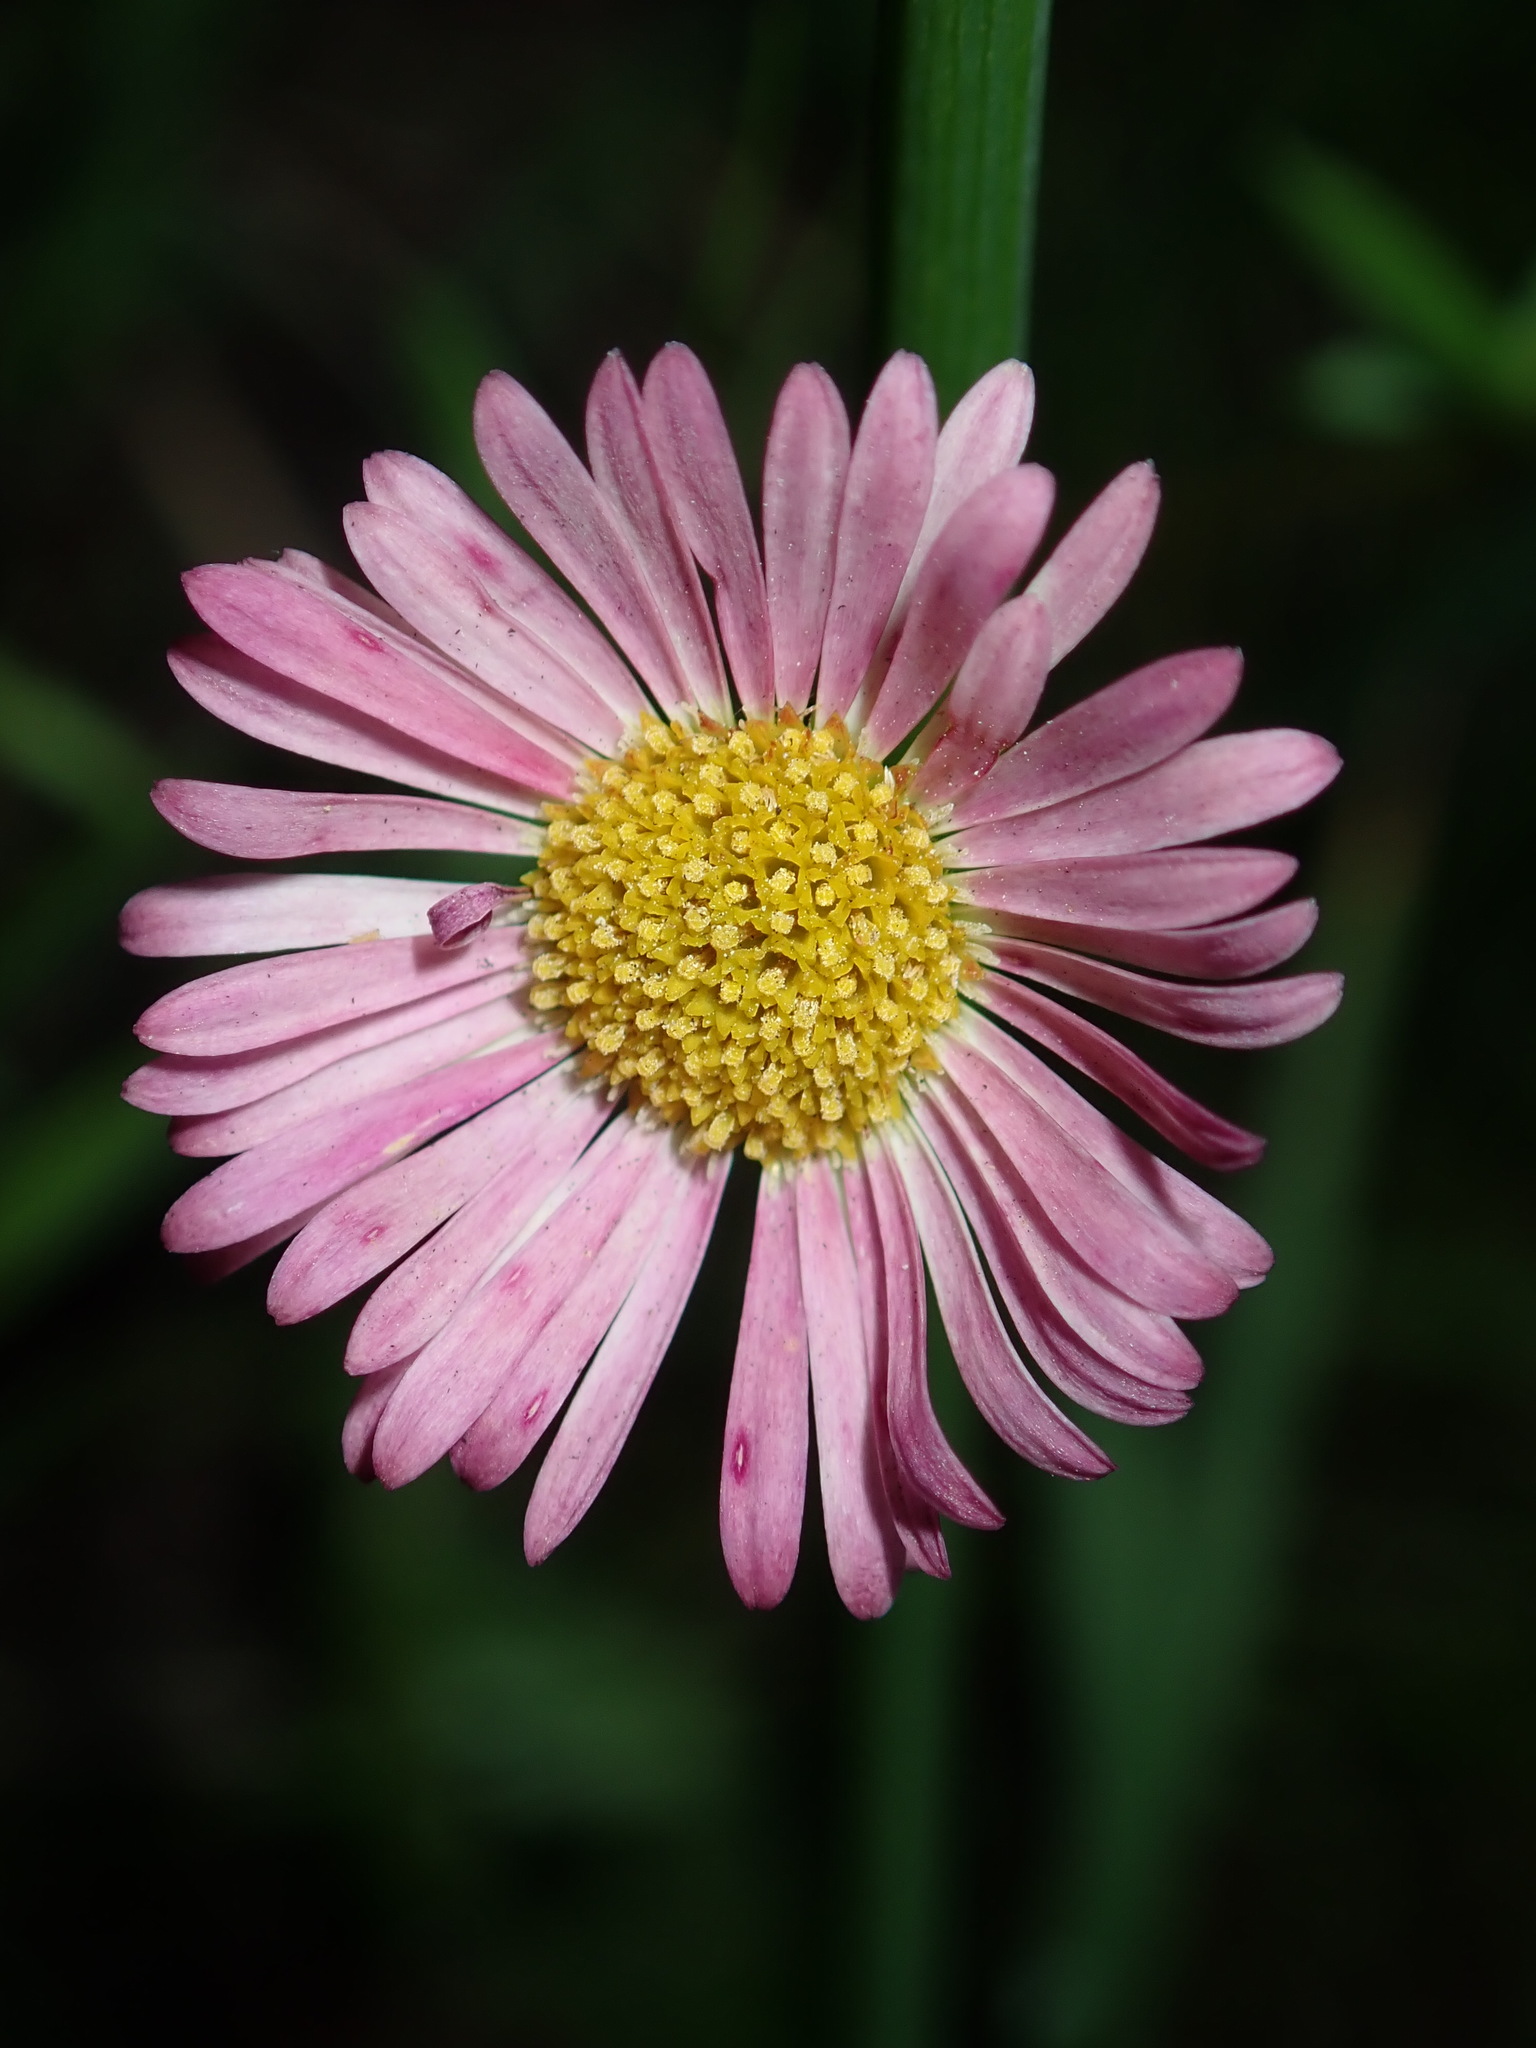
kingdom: Plantae
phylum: Tracheophyta
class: Magnoliopsida
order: Asterales
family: Asteraceae
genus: Erigeron
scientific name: Erigeron karvinskianus
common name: Mexican fleabane
